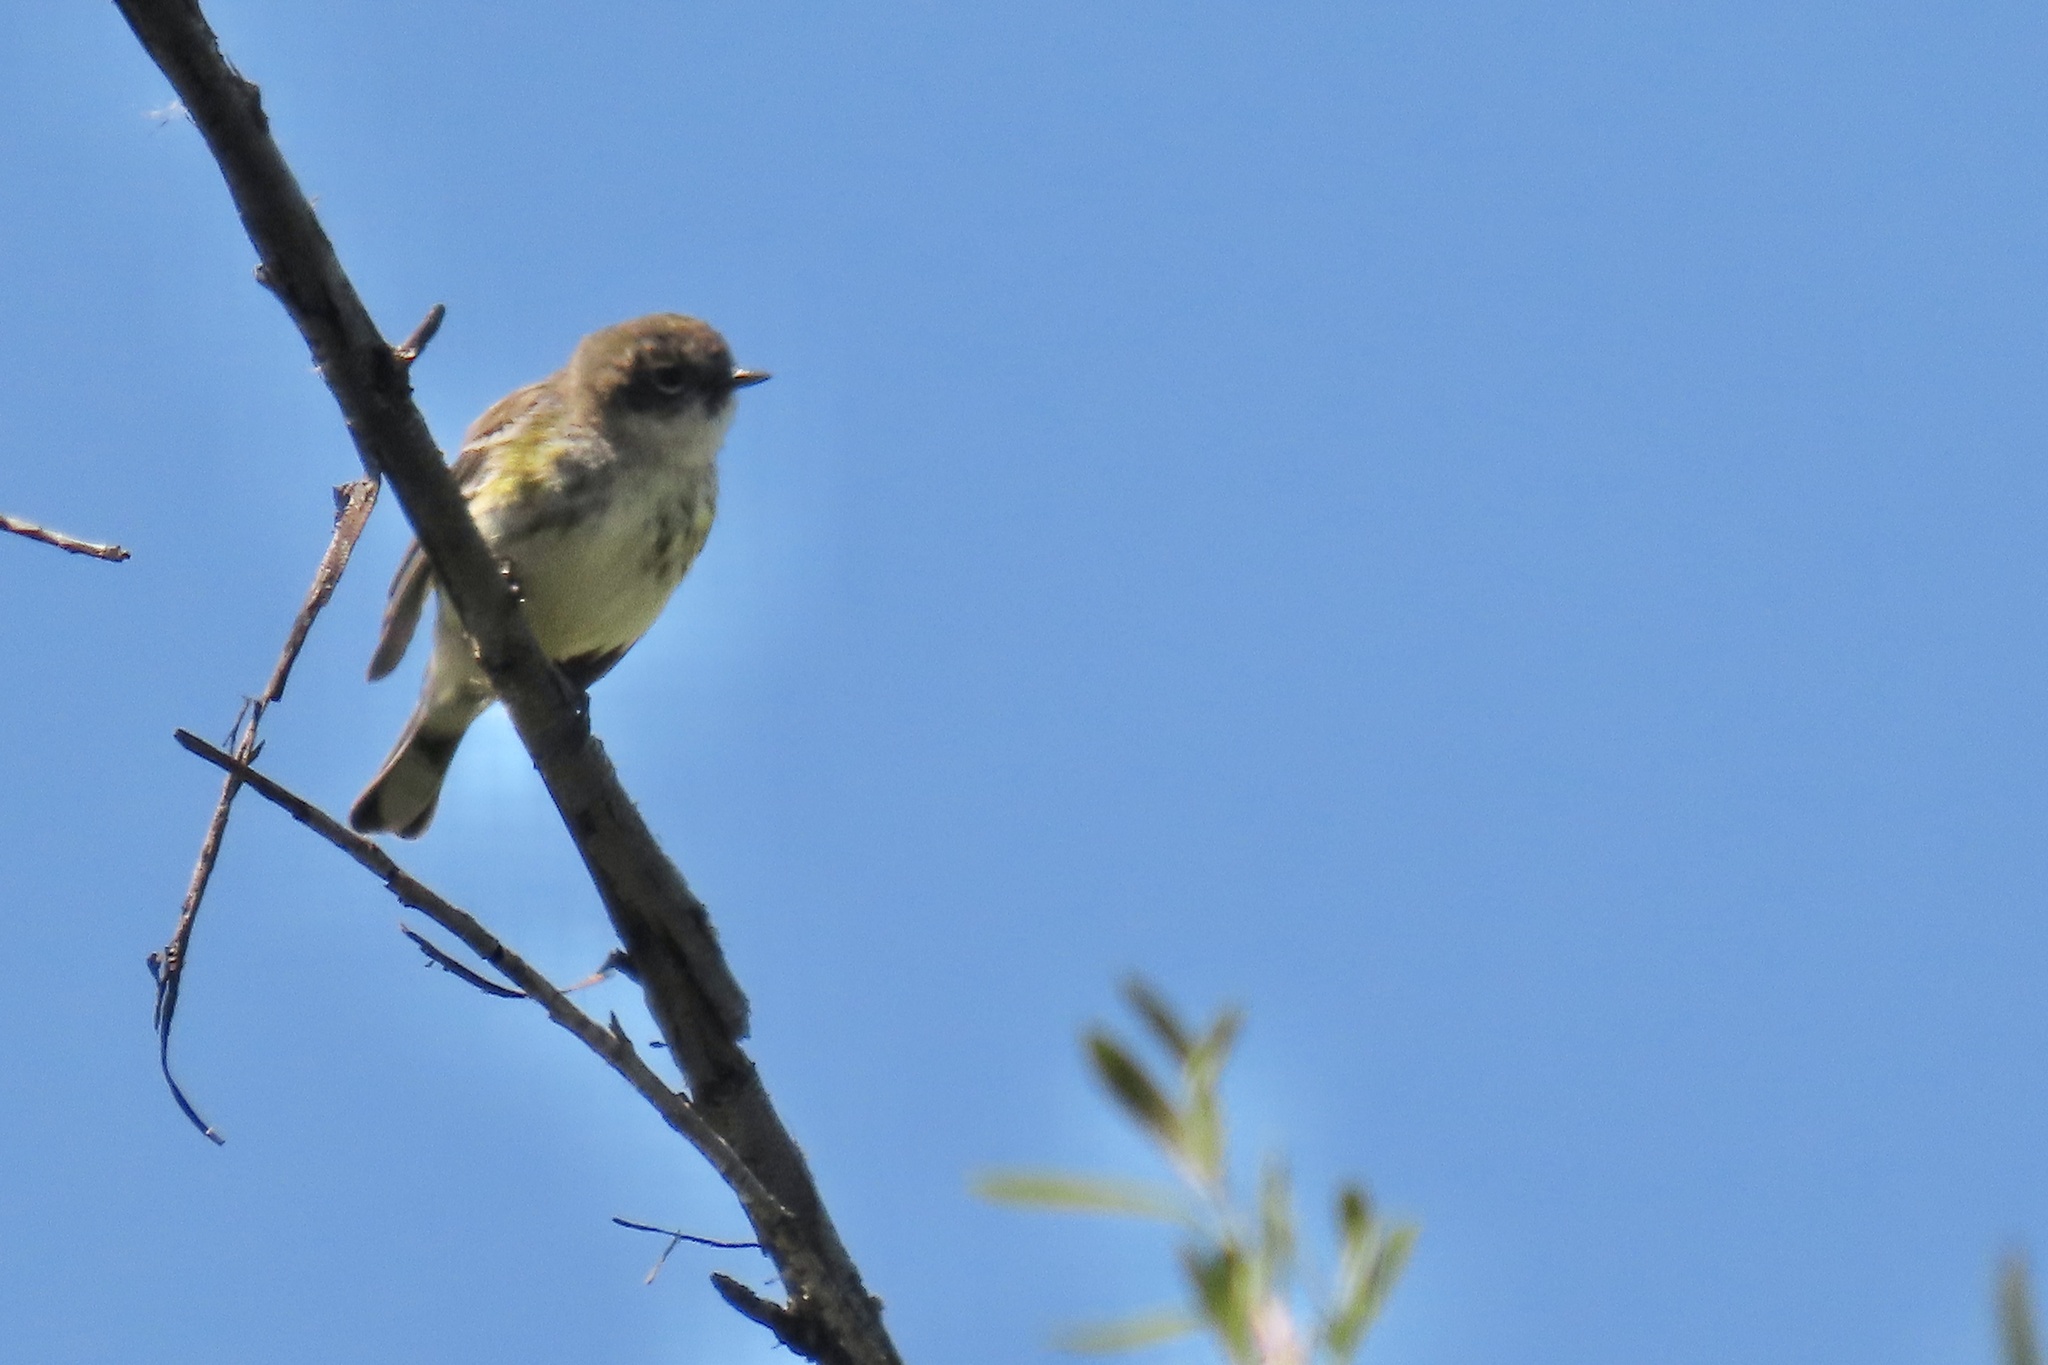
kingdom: Animalia
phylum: Chordata
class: Aves
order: Passeriformes
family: Parulidae
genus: Setophaga
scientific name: Setophaga coronata
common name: Myrtle warbler
